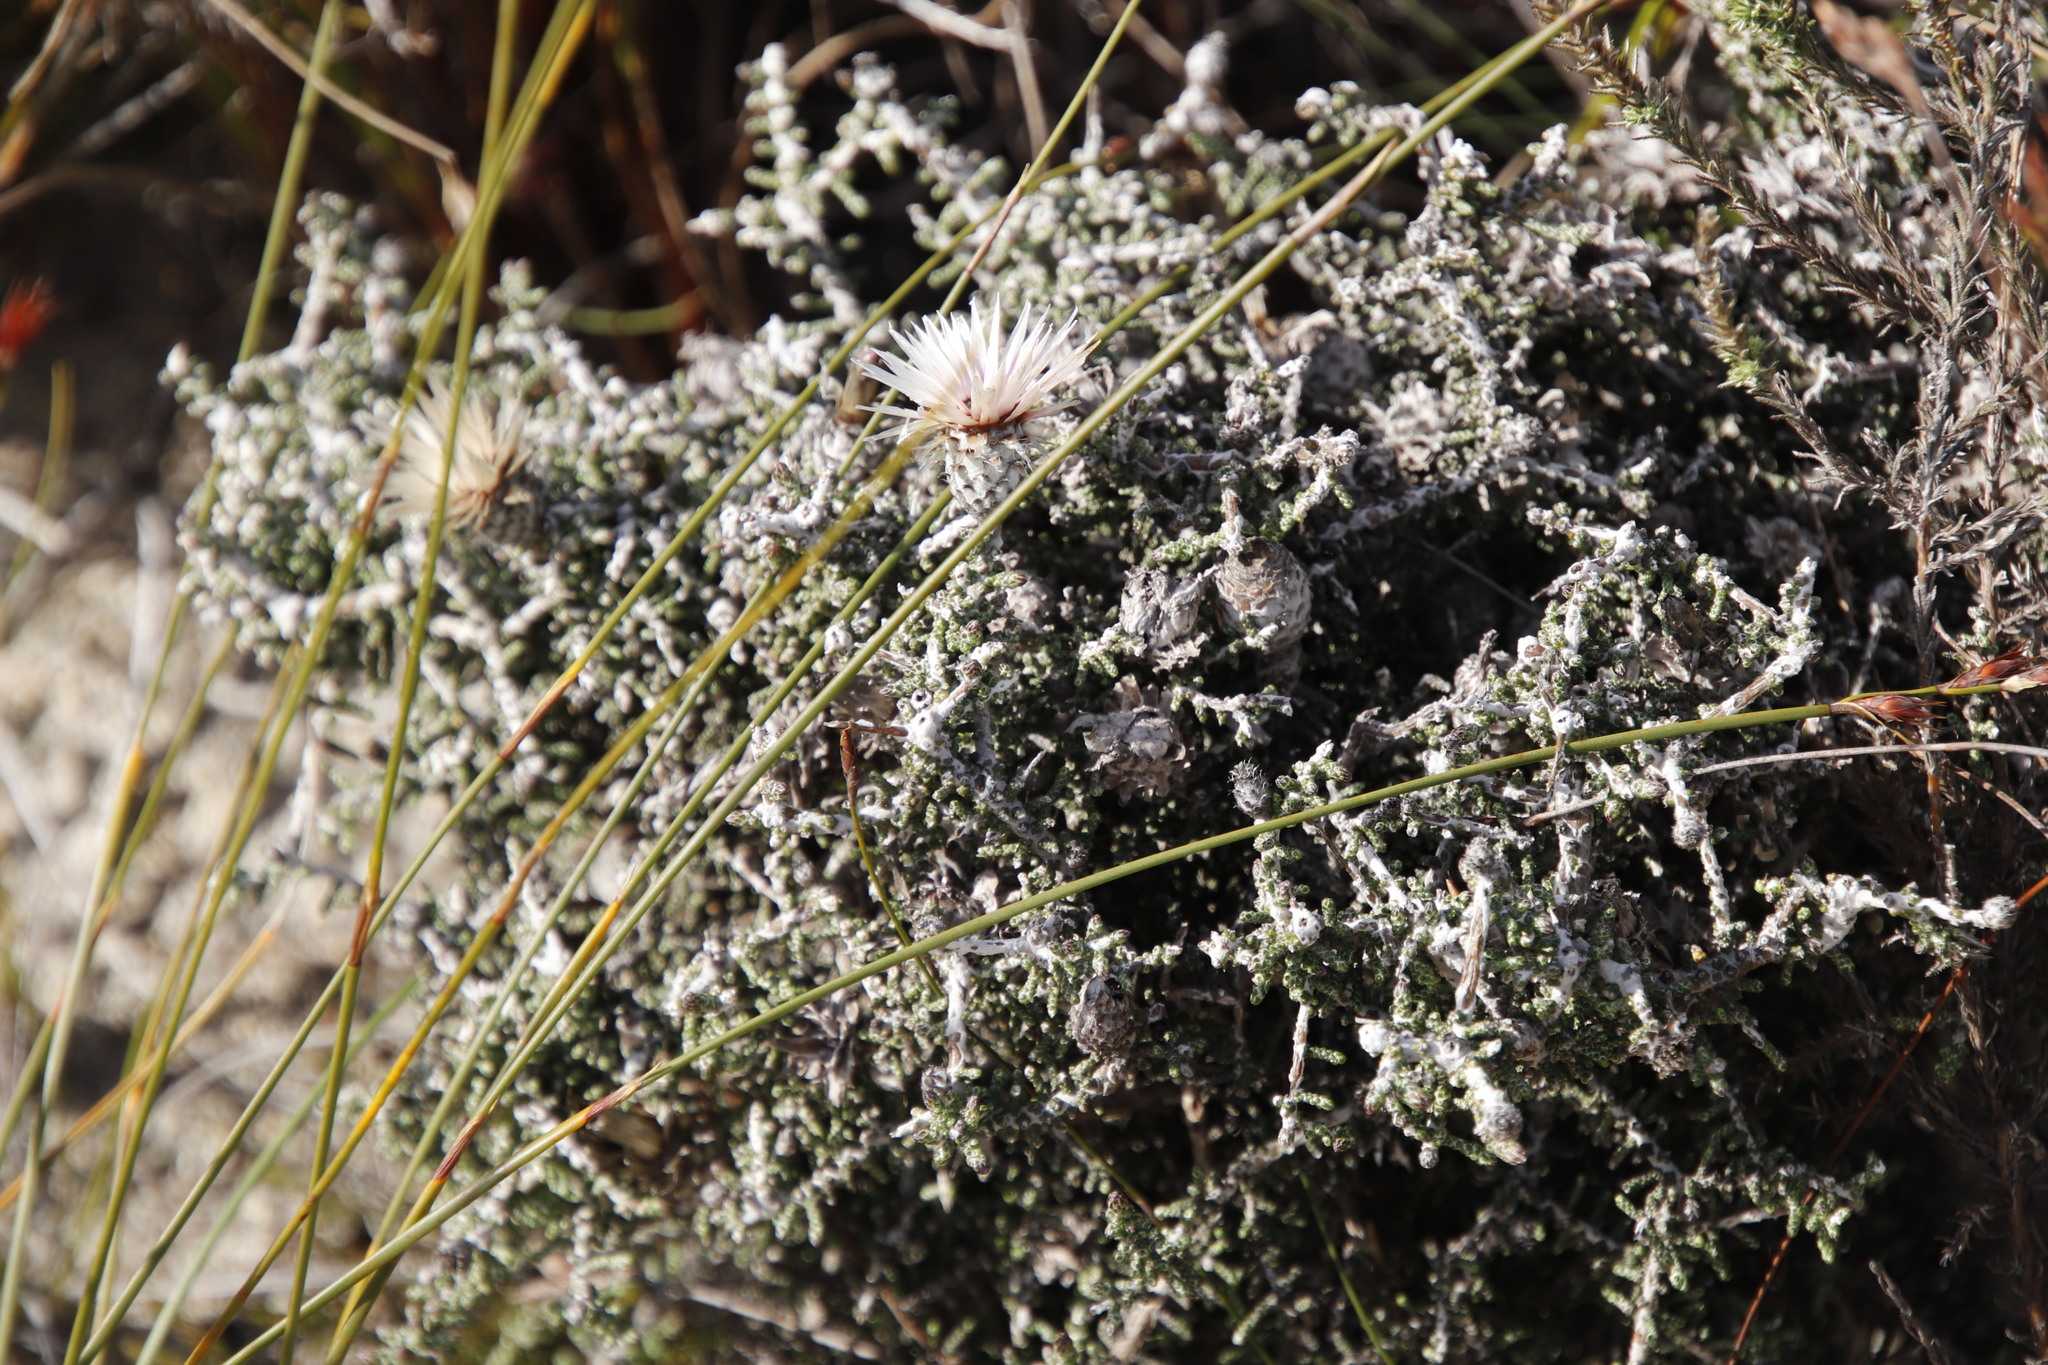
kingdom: Plantae
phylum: Tracheophyta
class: Magnoliopsida
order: Asterales
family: Asteraceae
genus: Phaenocoma
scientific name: Phaenocoma prolifera
